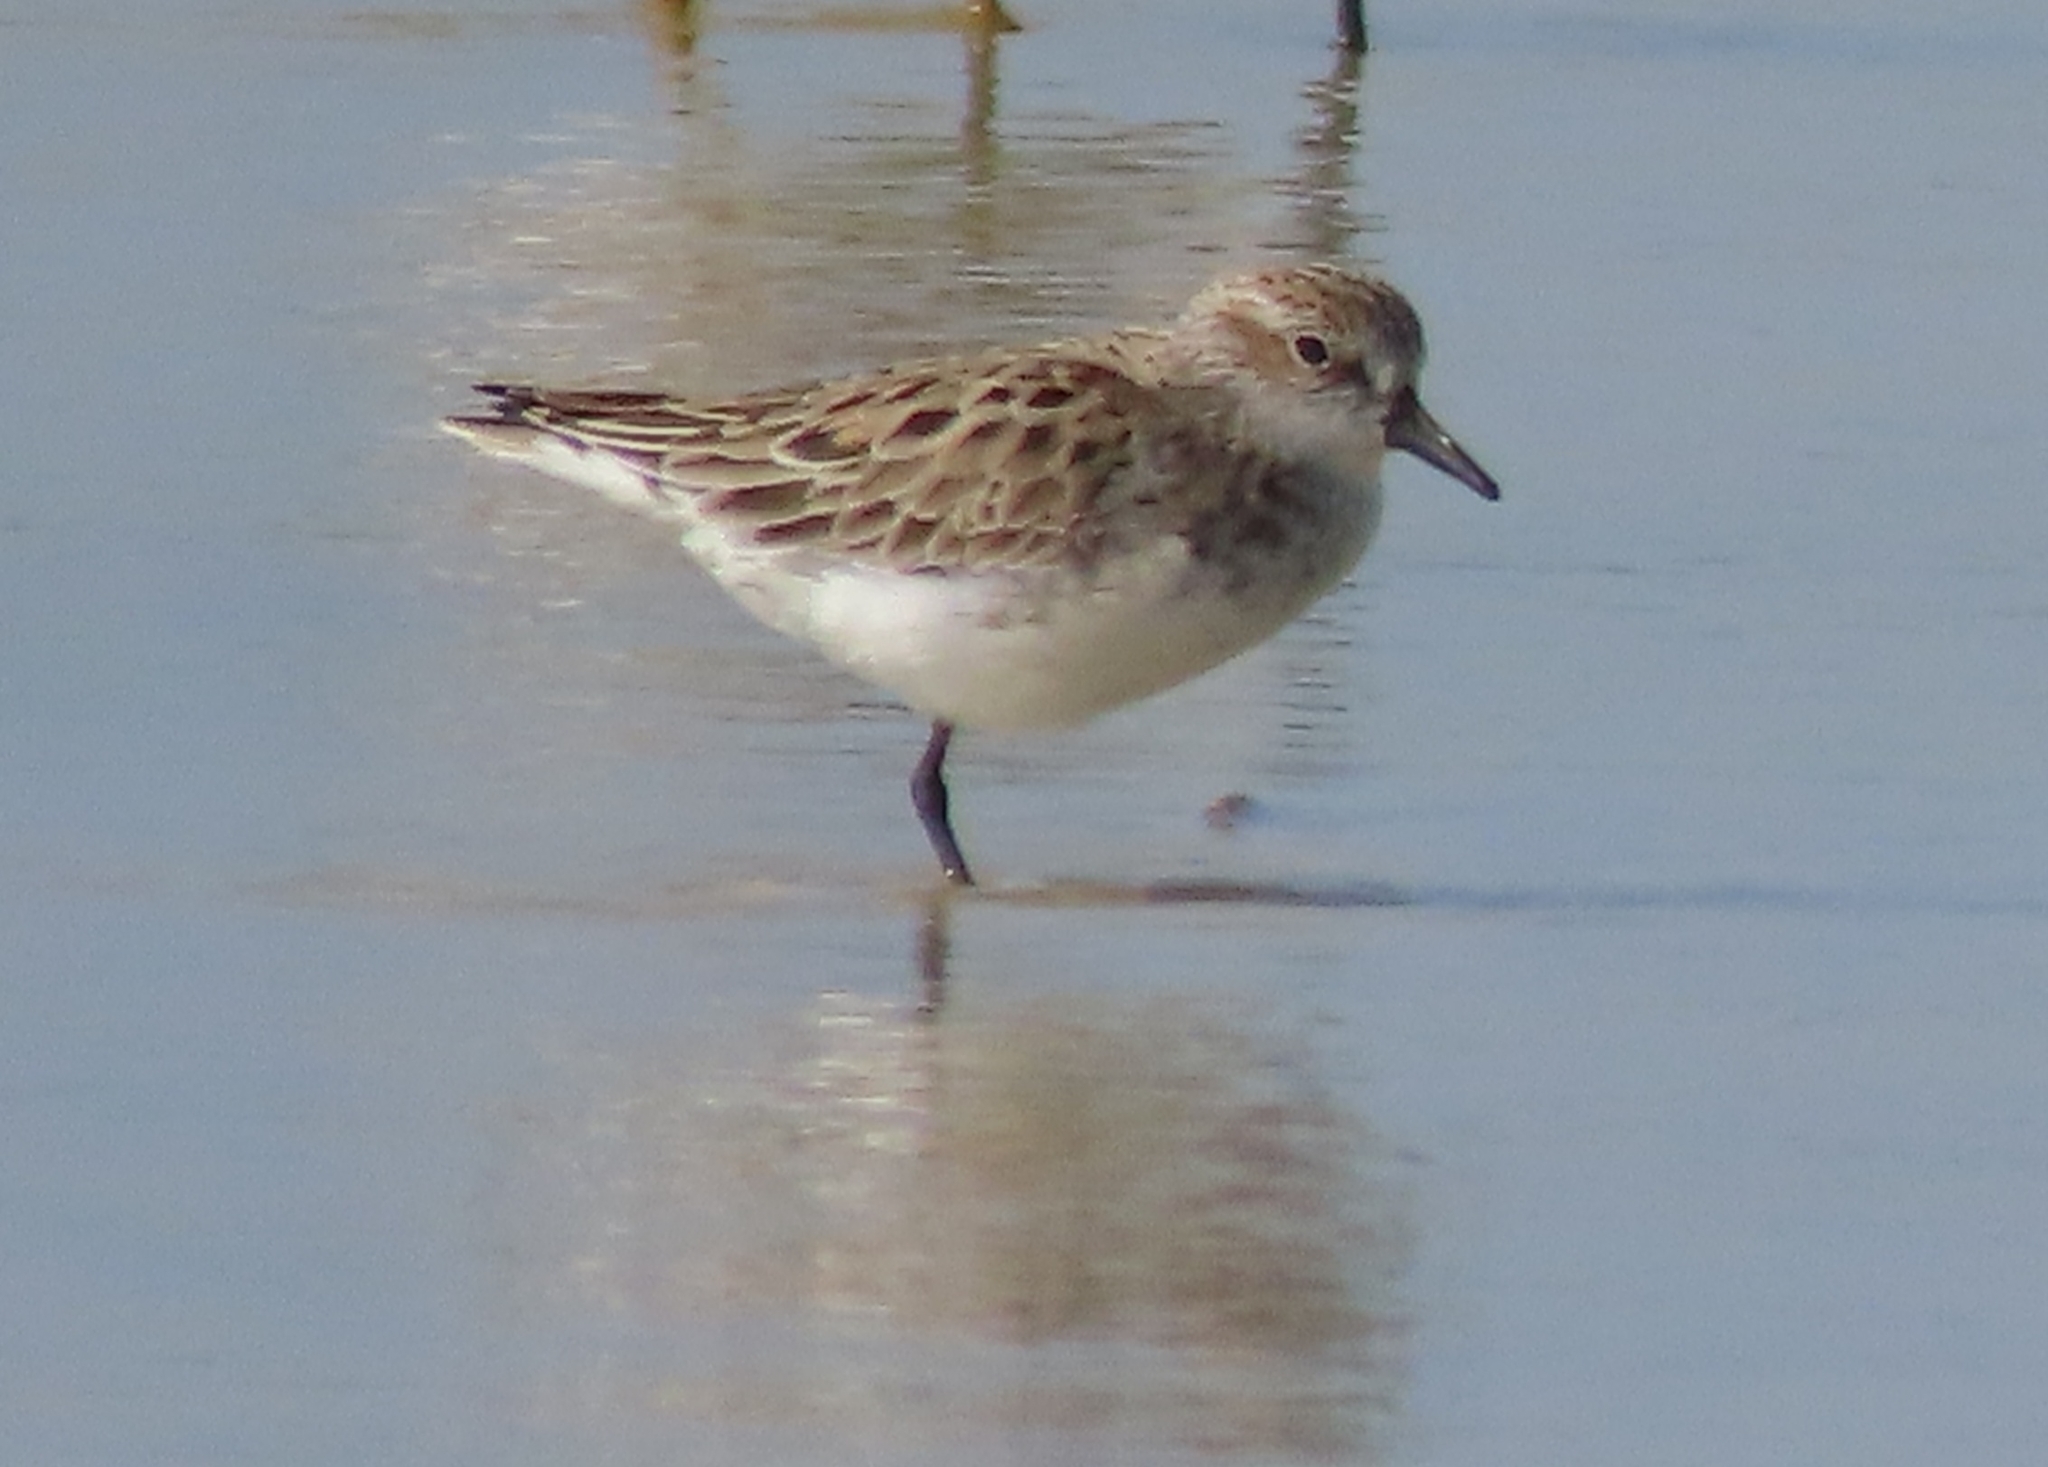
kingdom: Animalia
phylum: Chordata
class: Aves
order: Charadriiformes
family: Scolopacidae
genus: Calidris
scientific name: Calidris pusilla
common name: Semipalmated sandpiper
